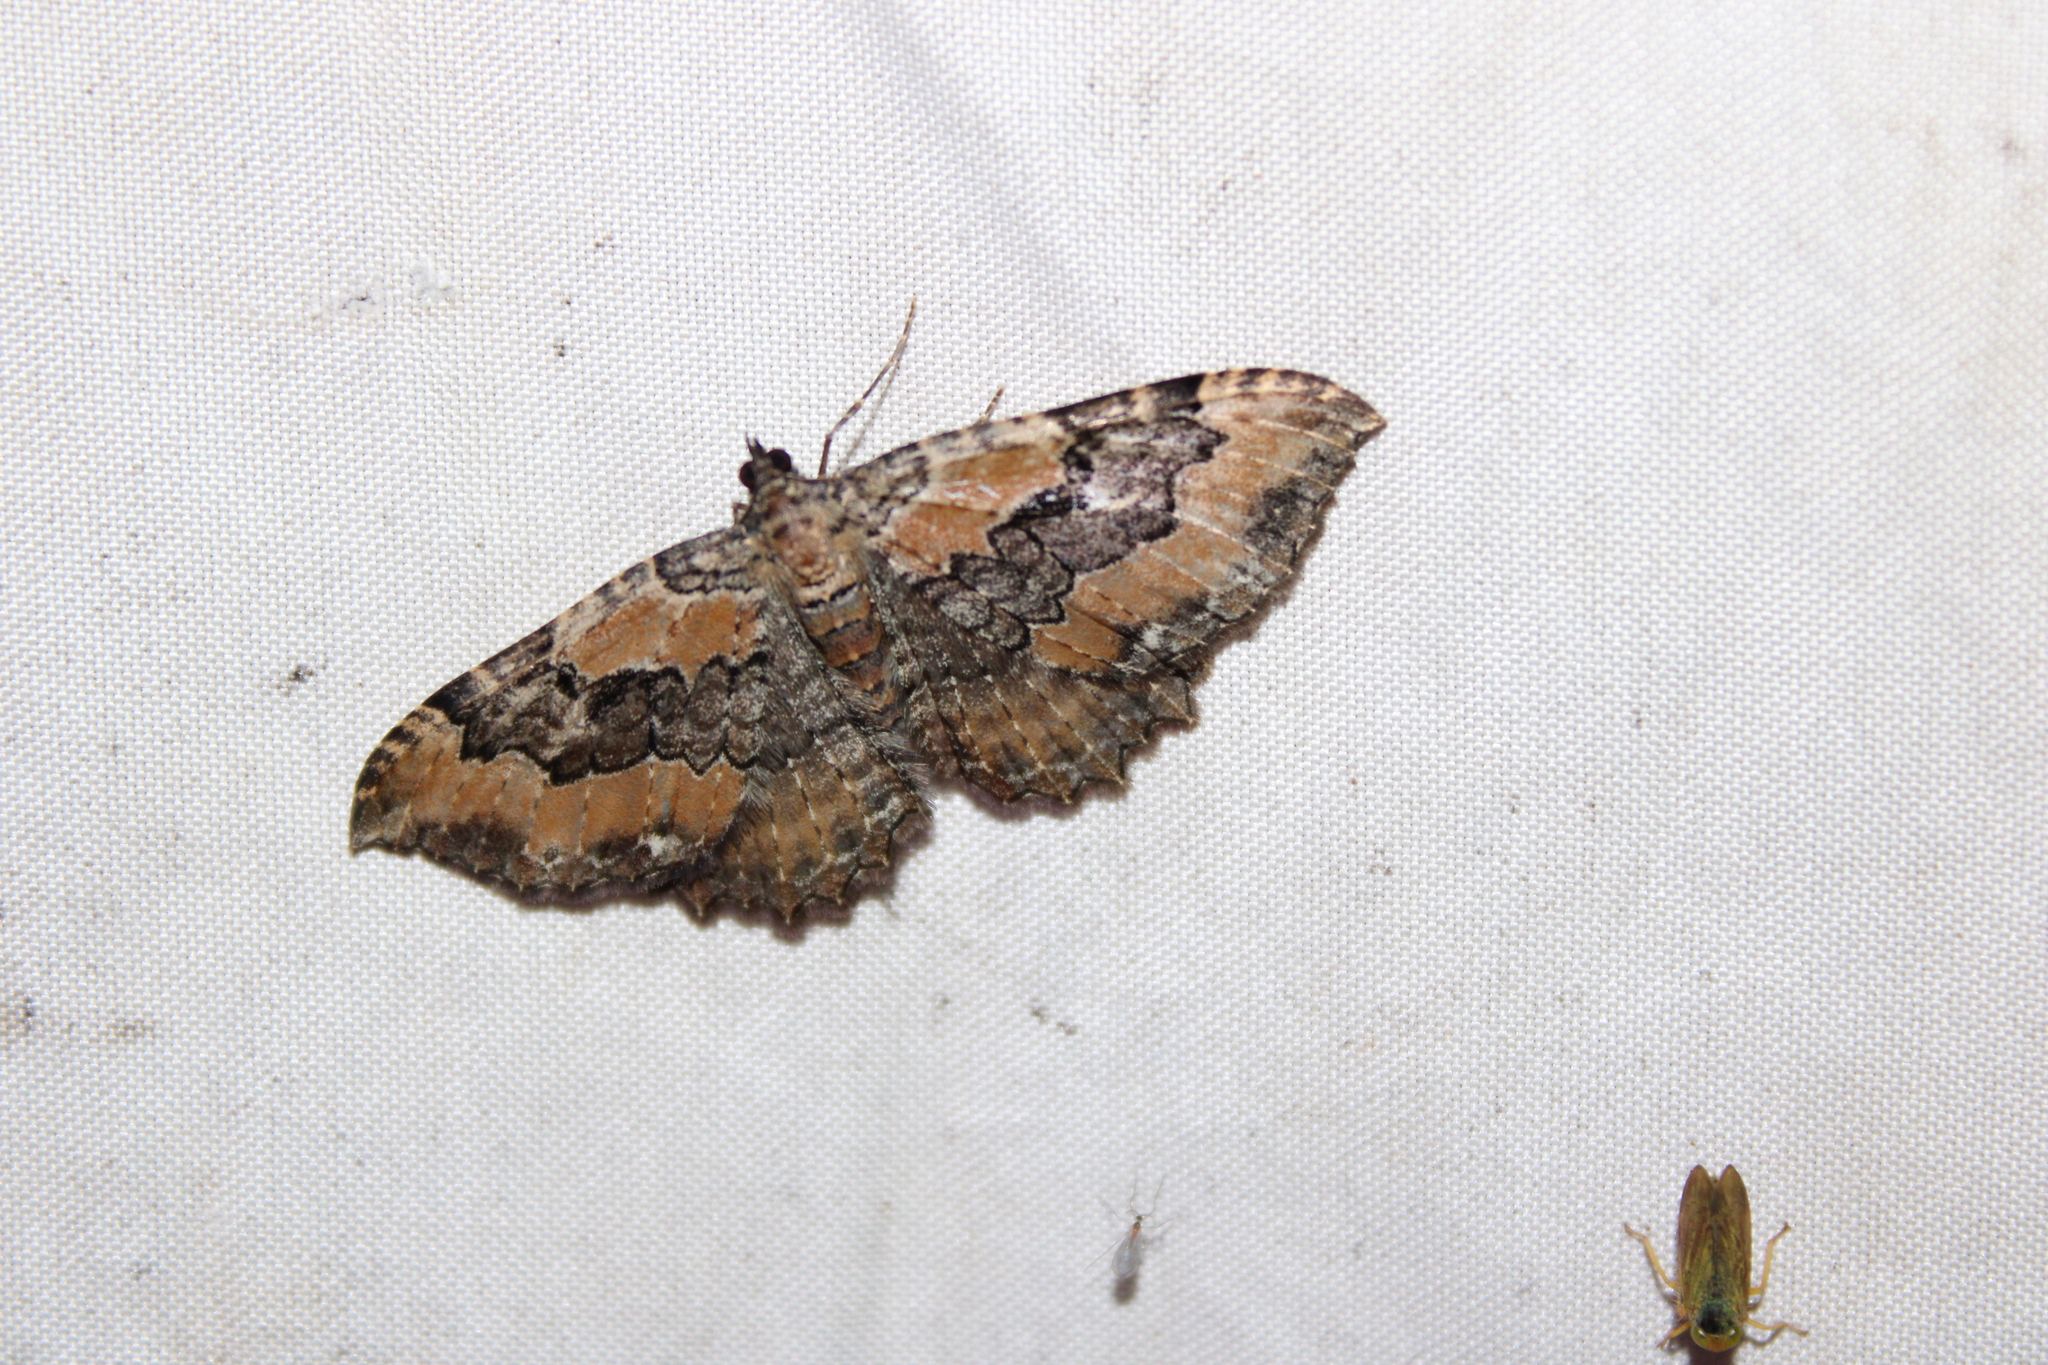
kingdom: Animalia
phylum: Arthropoda
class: Insecta
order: Lepidoptera
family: Geometridae
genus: Rheumaptera
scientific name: Rheumaptera
